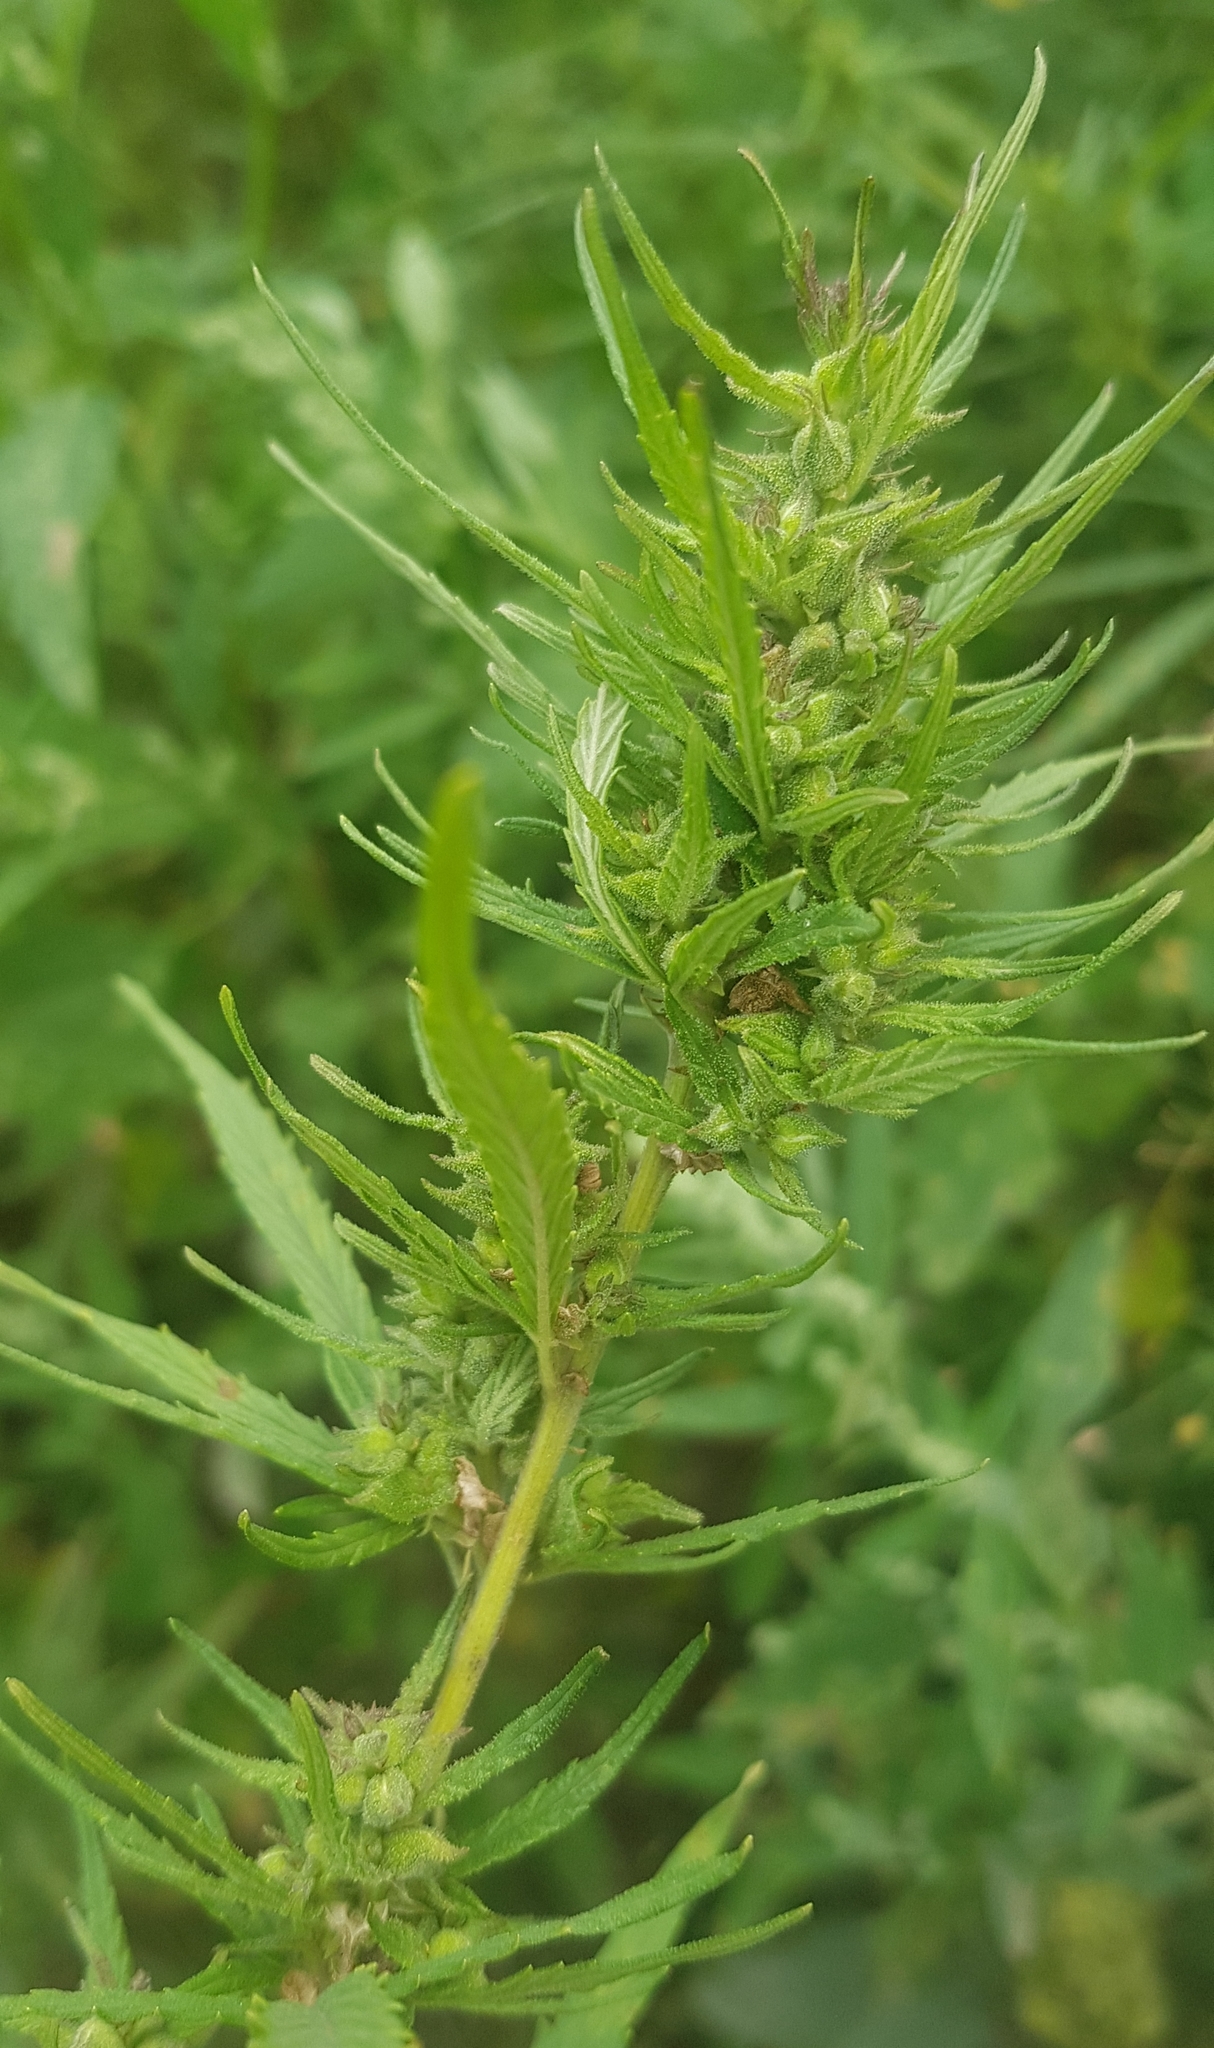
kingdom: Plantae
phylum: Tracheophyta
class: Magnoliopsida
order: Rosales
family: Cannabaceae
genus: Cannabis
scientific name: Cannabis sativa
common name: Hemp
